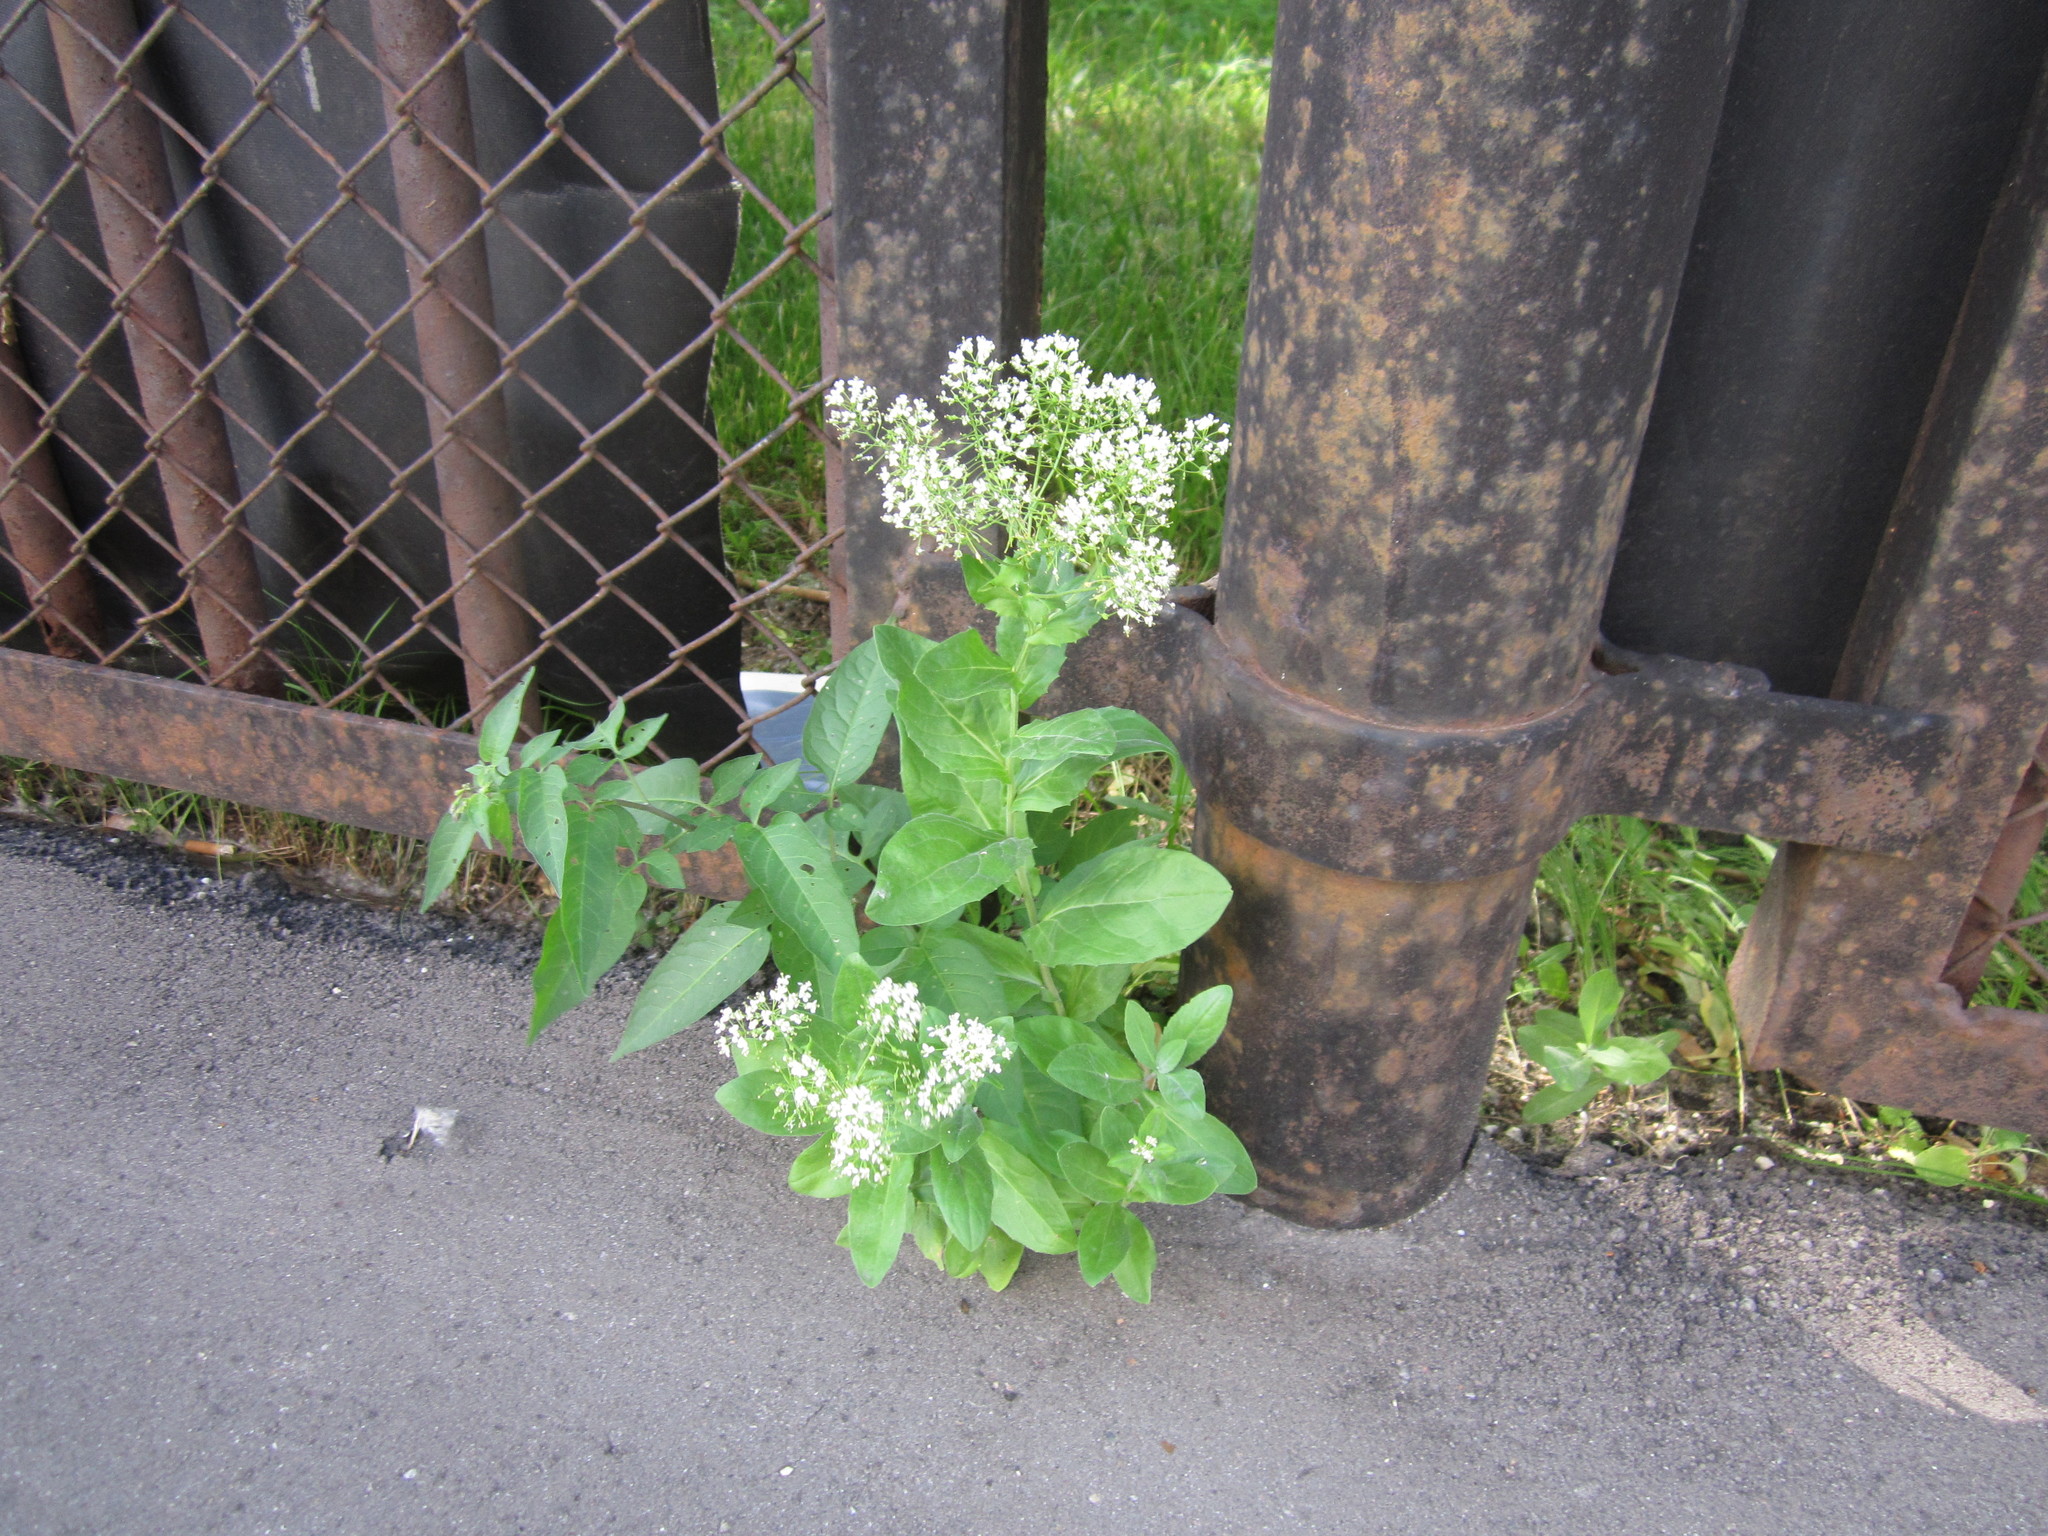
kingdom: Plantae
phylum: Tracheophyta
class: Magnoliopsida
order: Brassicales
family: Brassicaceae
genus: Lepidium
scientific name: Lepidium draba
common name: Hoary cress
